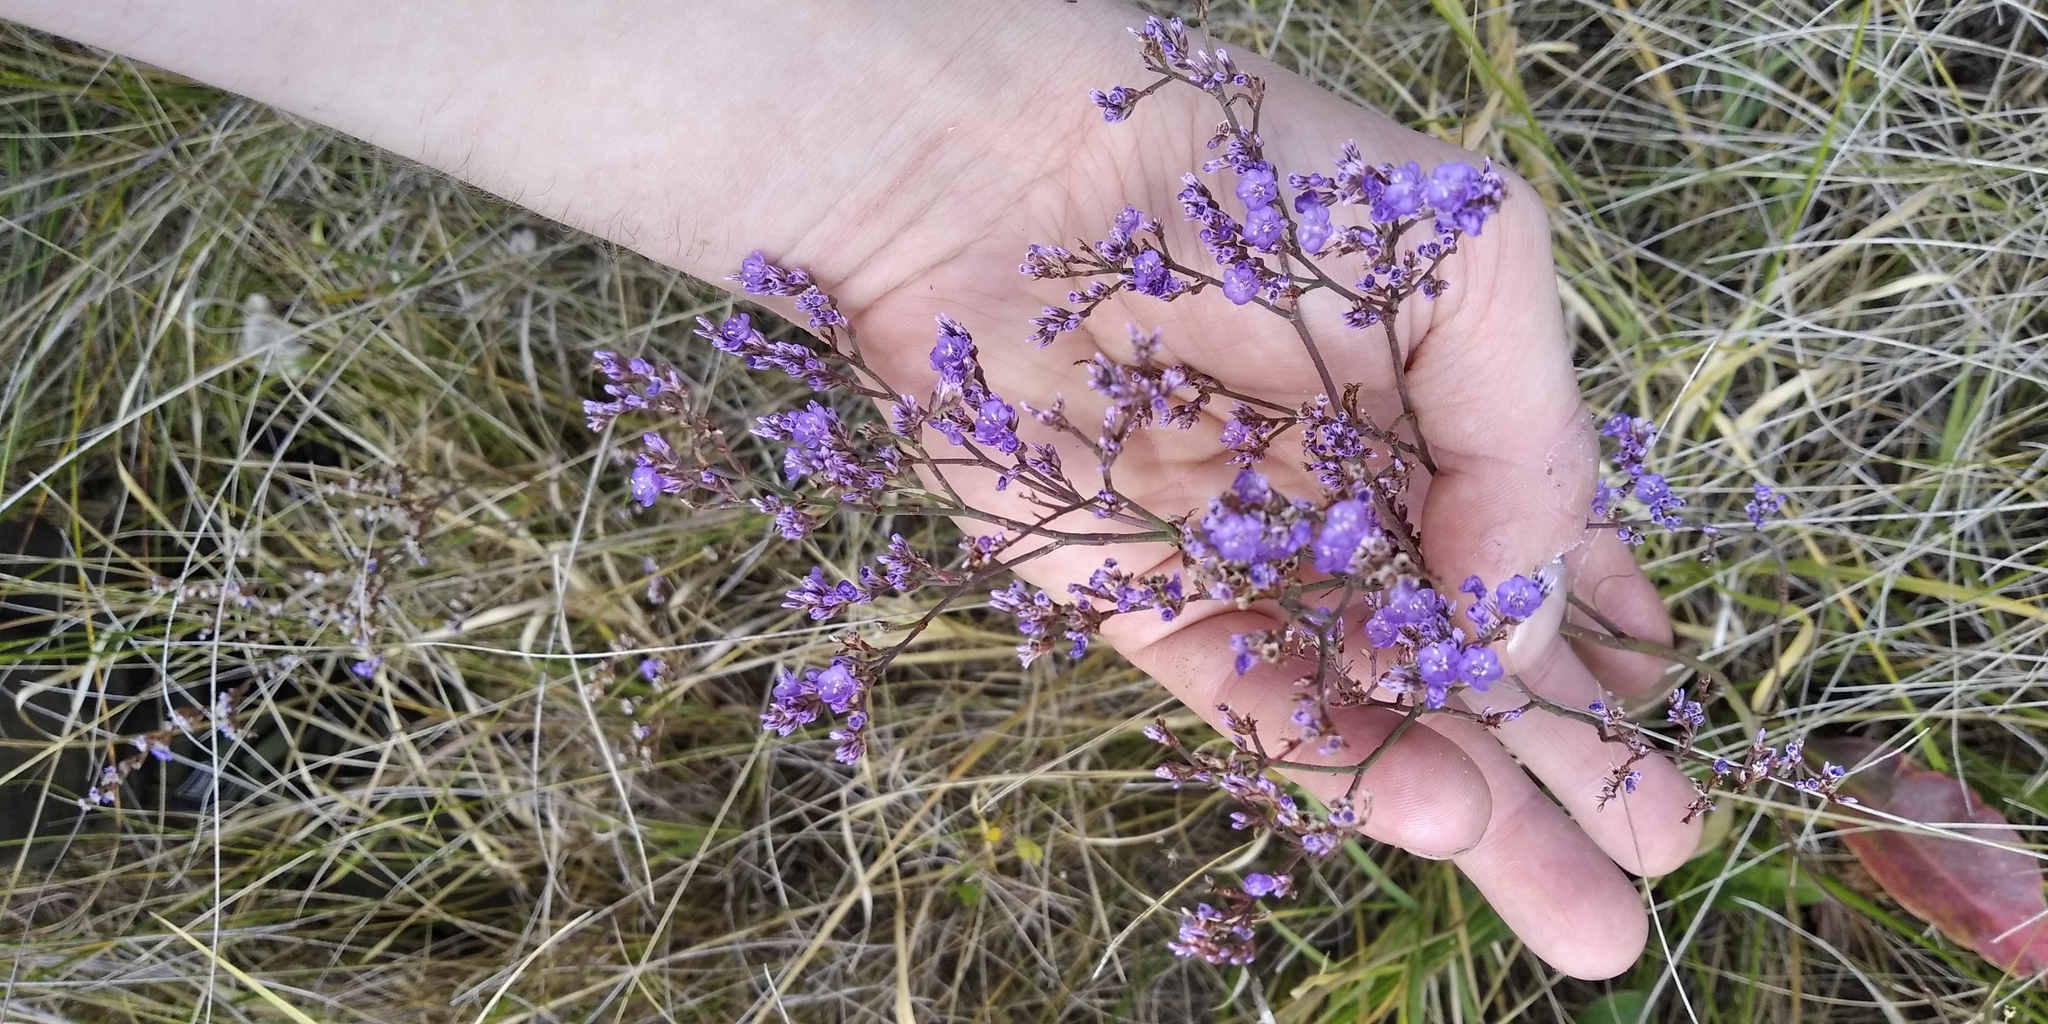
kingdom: Plantae
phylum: Tracheophyta
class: Magnoliopsida
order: Caryophyllales
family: Plumbaginaceae
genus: Limonium
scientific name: Limonium gmelini
